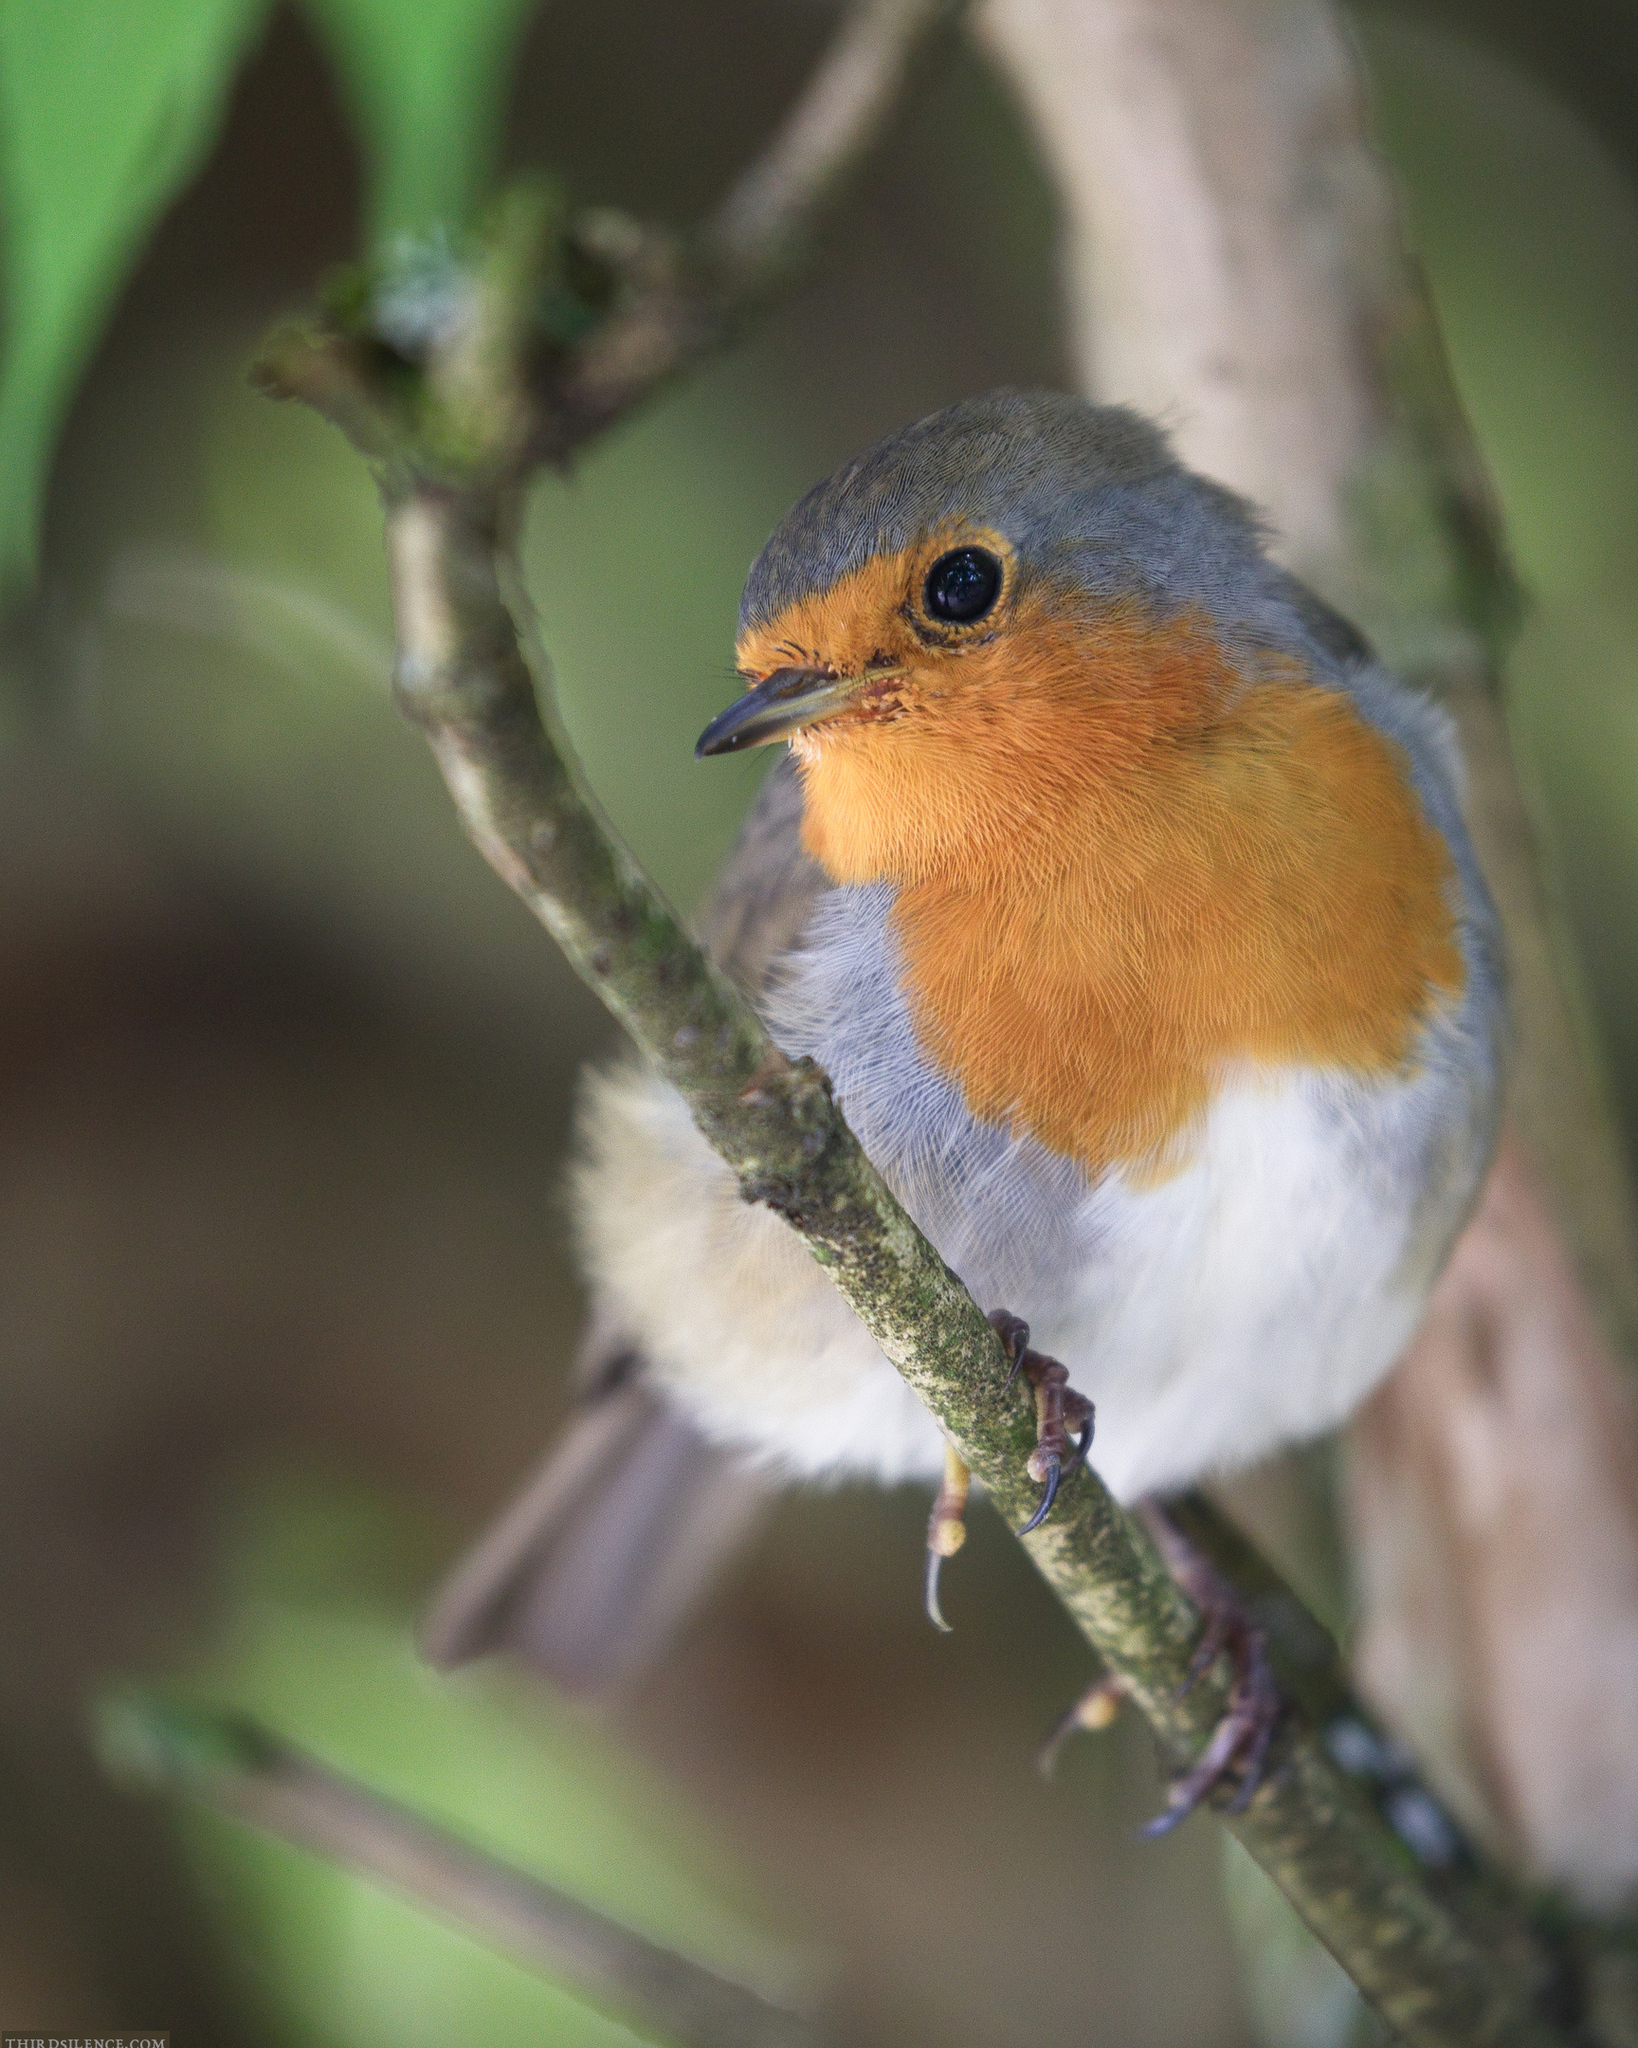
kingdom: Animalia
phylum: Chordata
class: Aves
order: Passeriformes
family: Muscicapidae
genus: Erithacus
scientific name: Erithacus rubecula
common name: European robin
